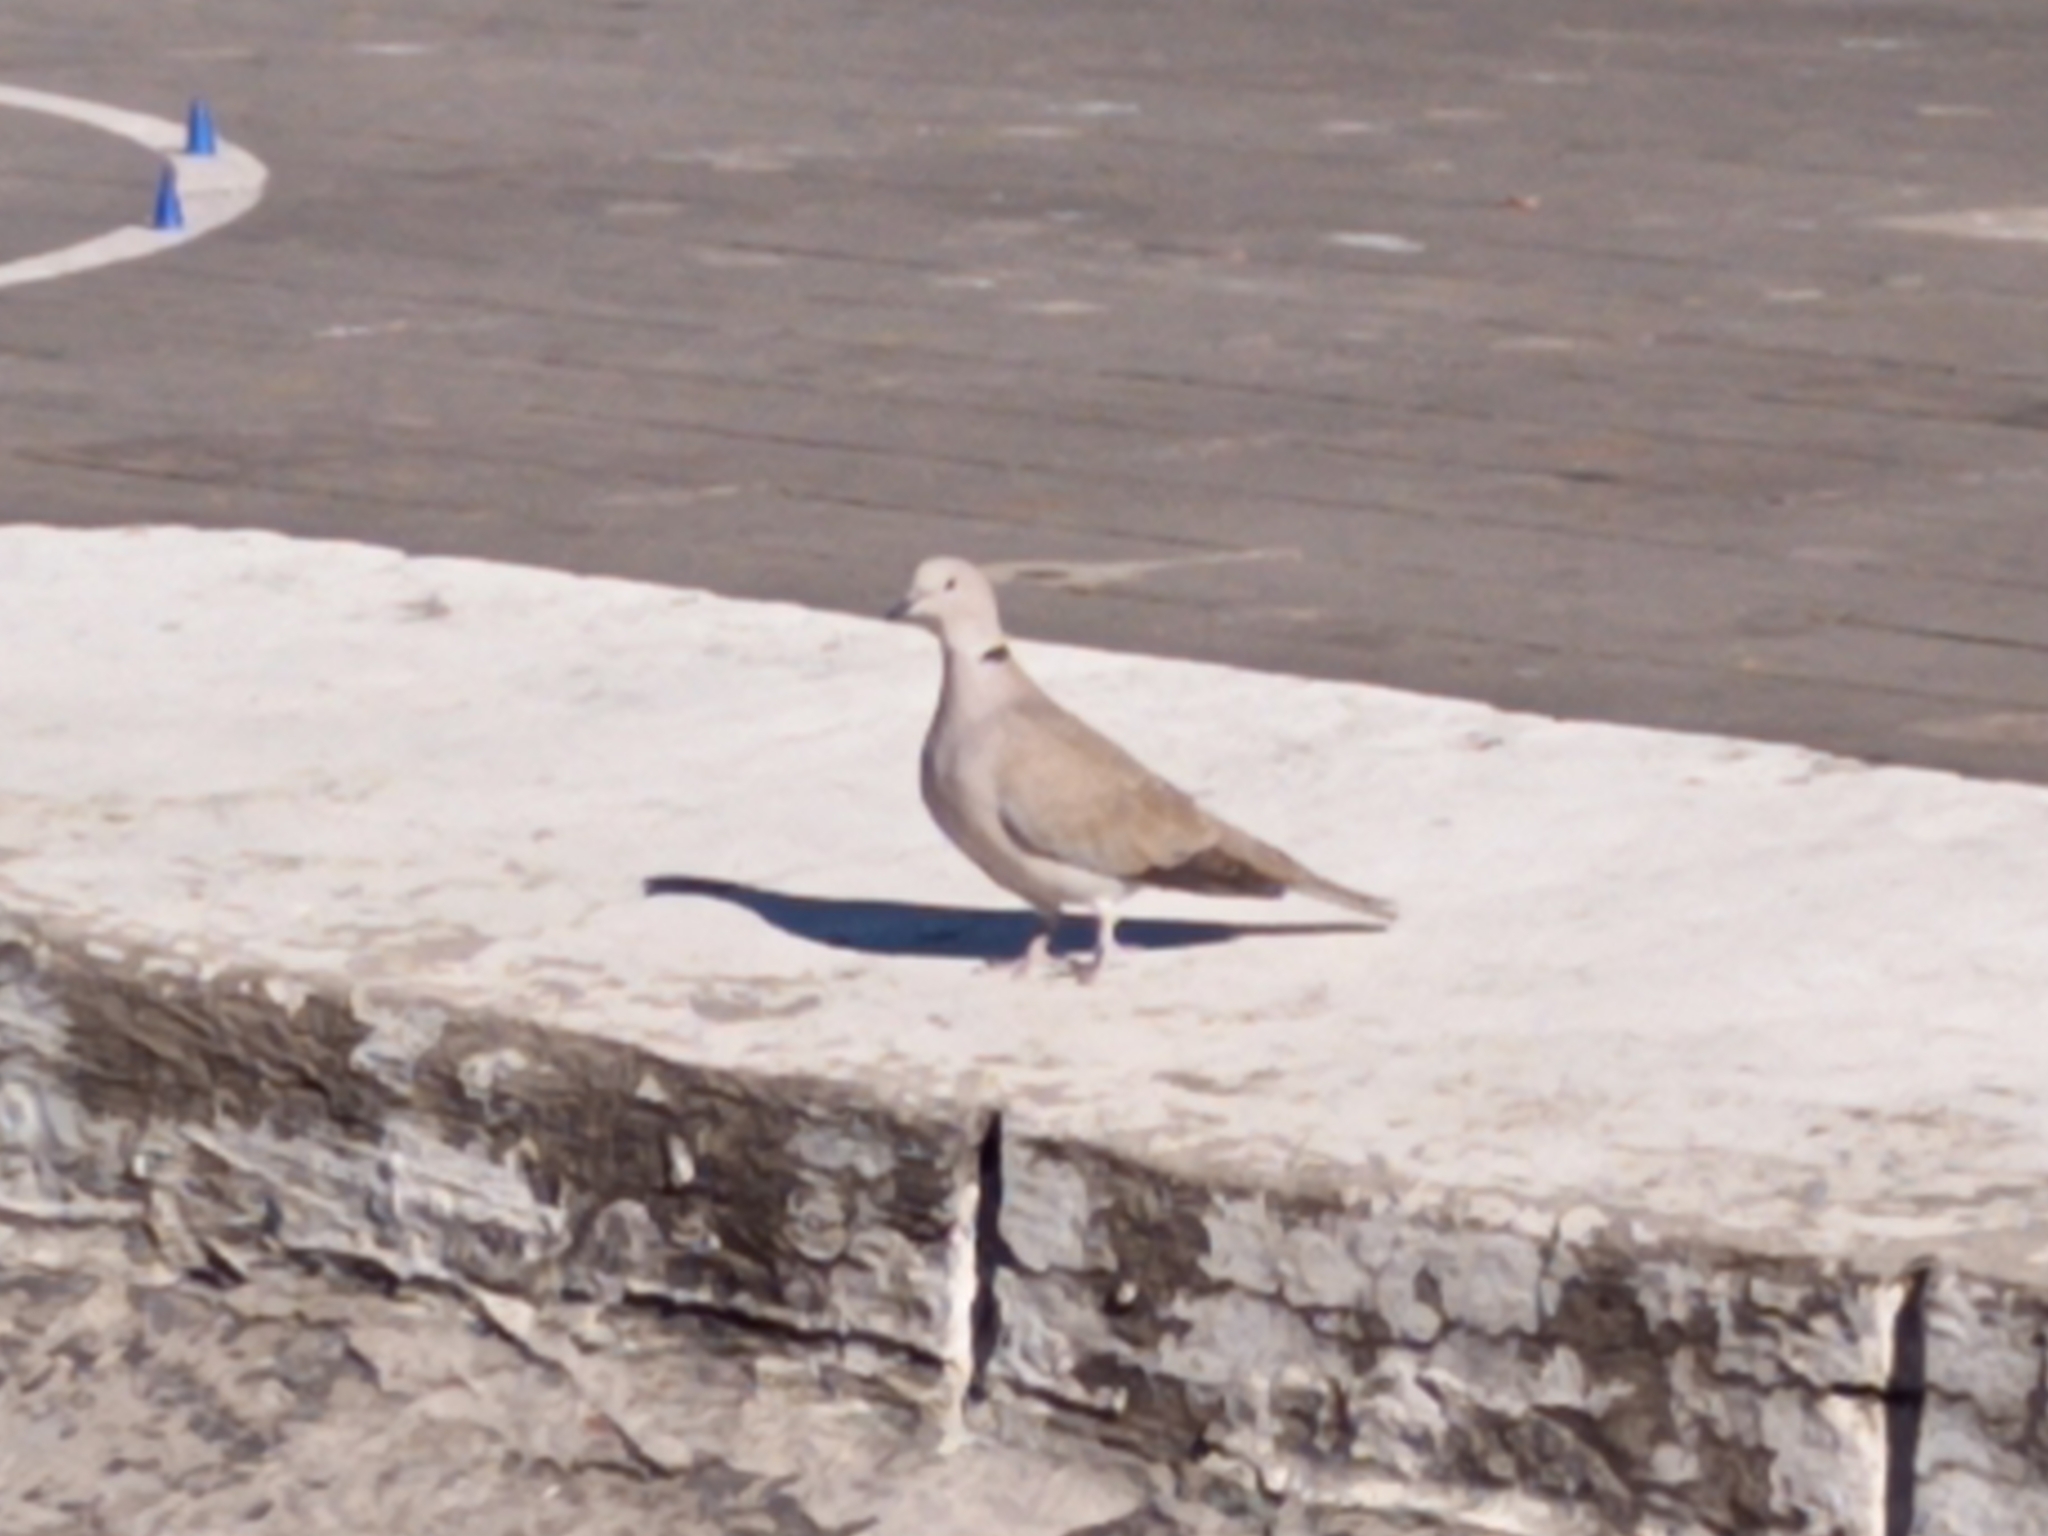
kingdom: Animalia
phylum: Chordata
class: Aves
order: Columbiformes
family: Columbidae
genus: Streptopelia
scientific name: Streptopelia decaocto
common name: Eurasian collared dove
